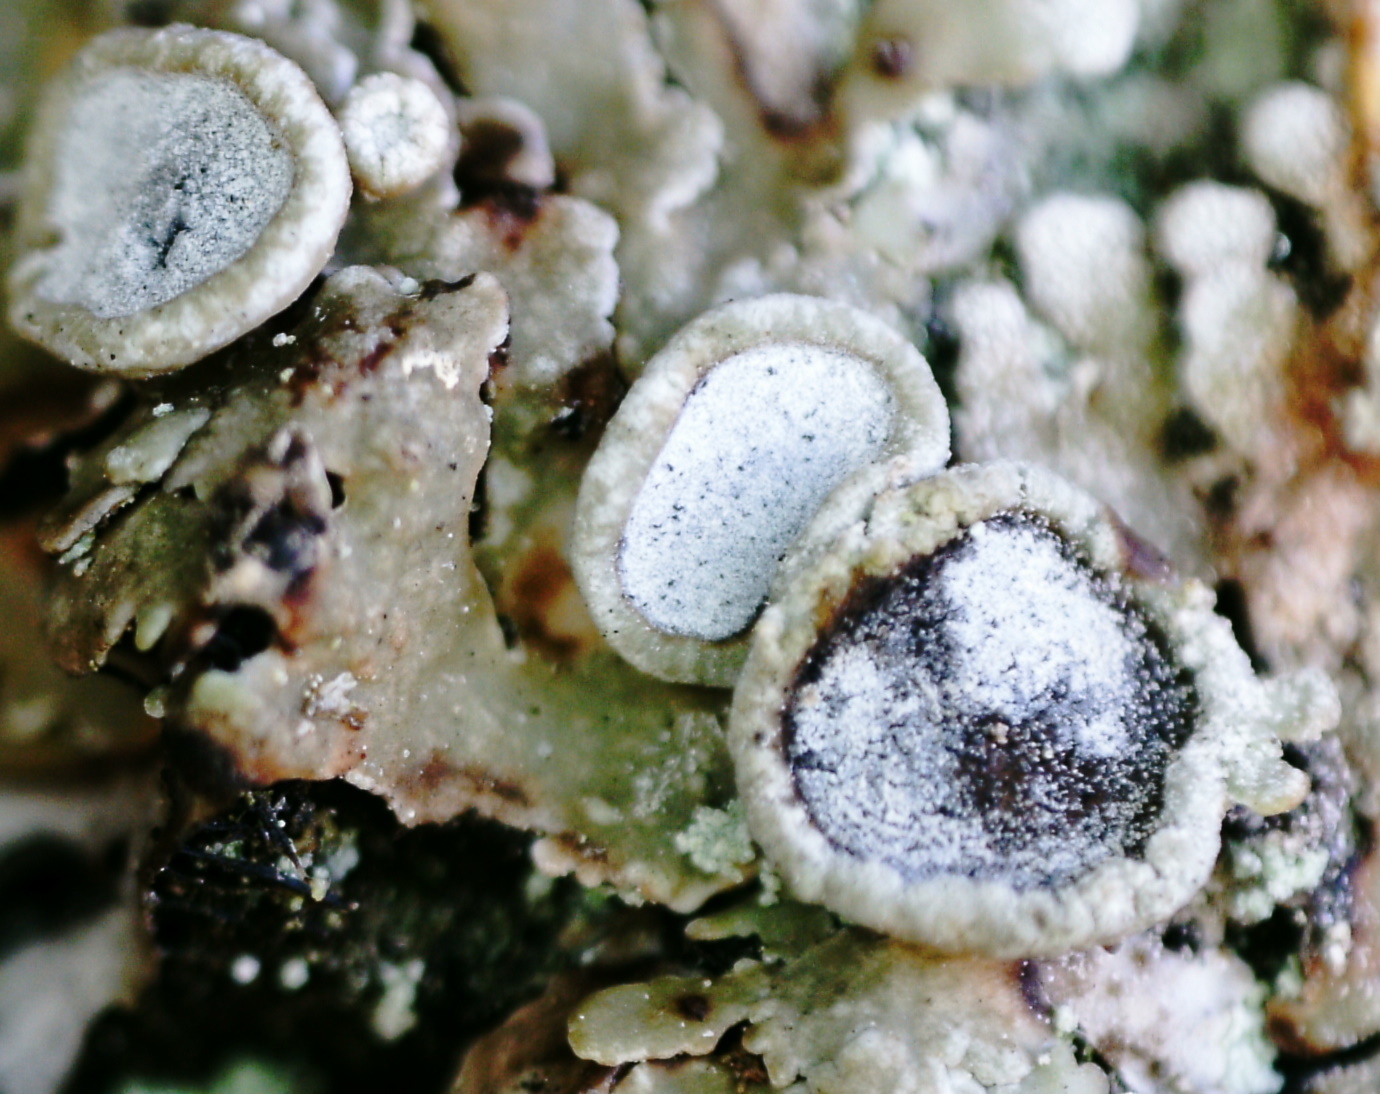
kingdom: Fungi
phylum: Ascomycota
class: Lecanoromycetes
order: Caliciales
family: Physciaceae
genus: Physconia
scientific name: Physconia distorta
